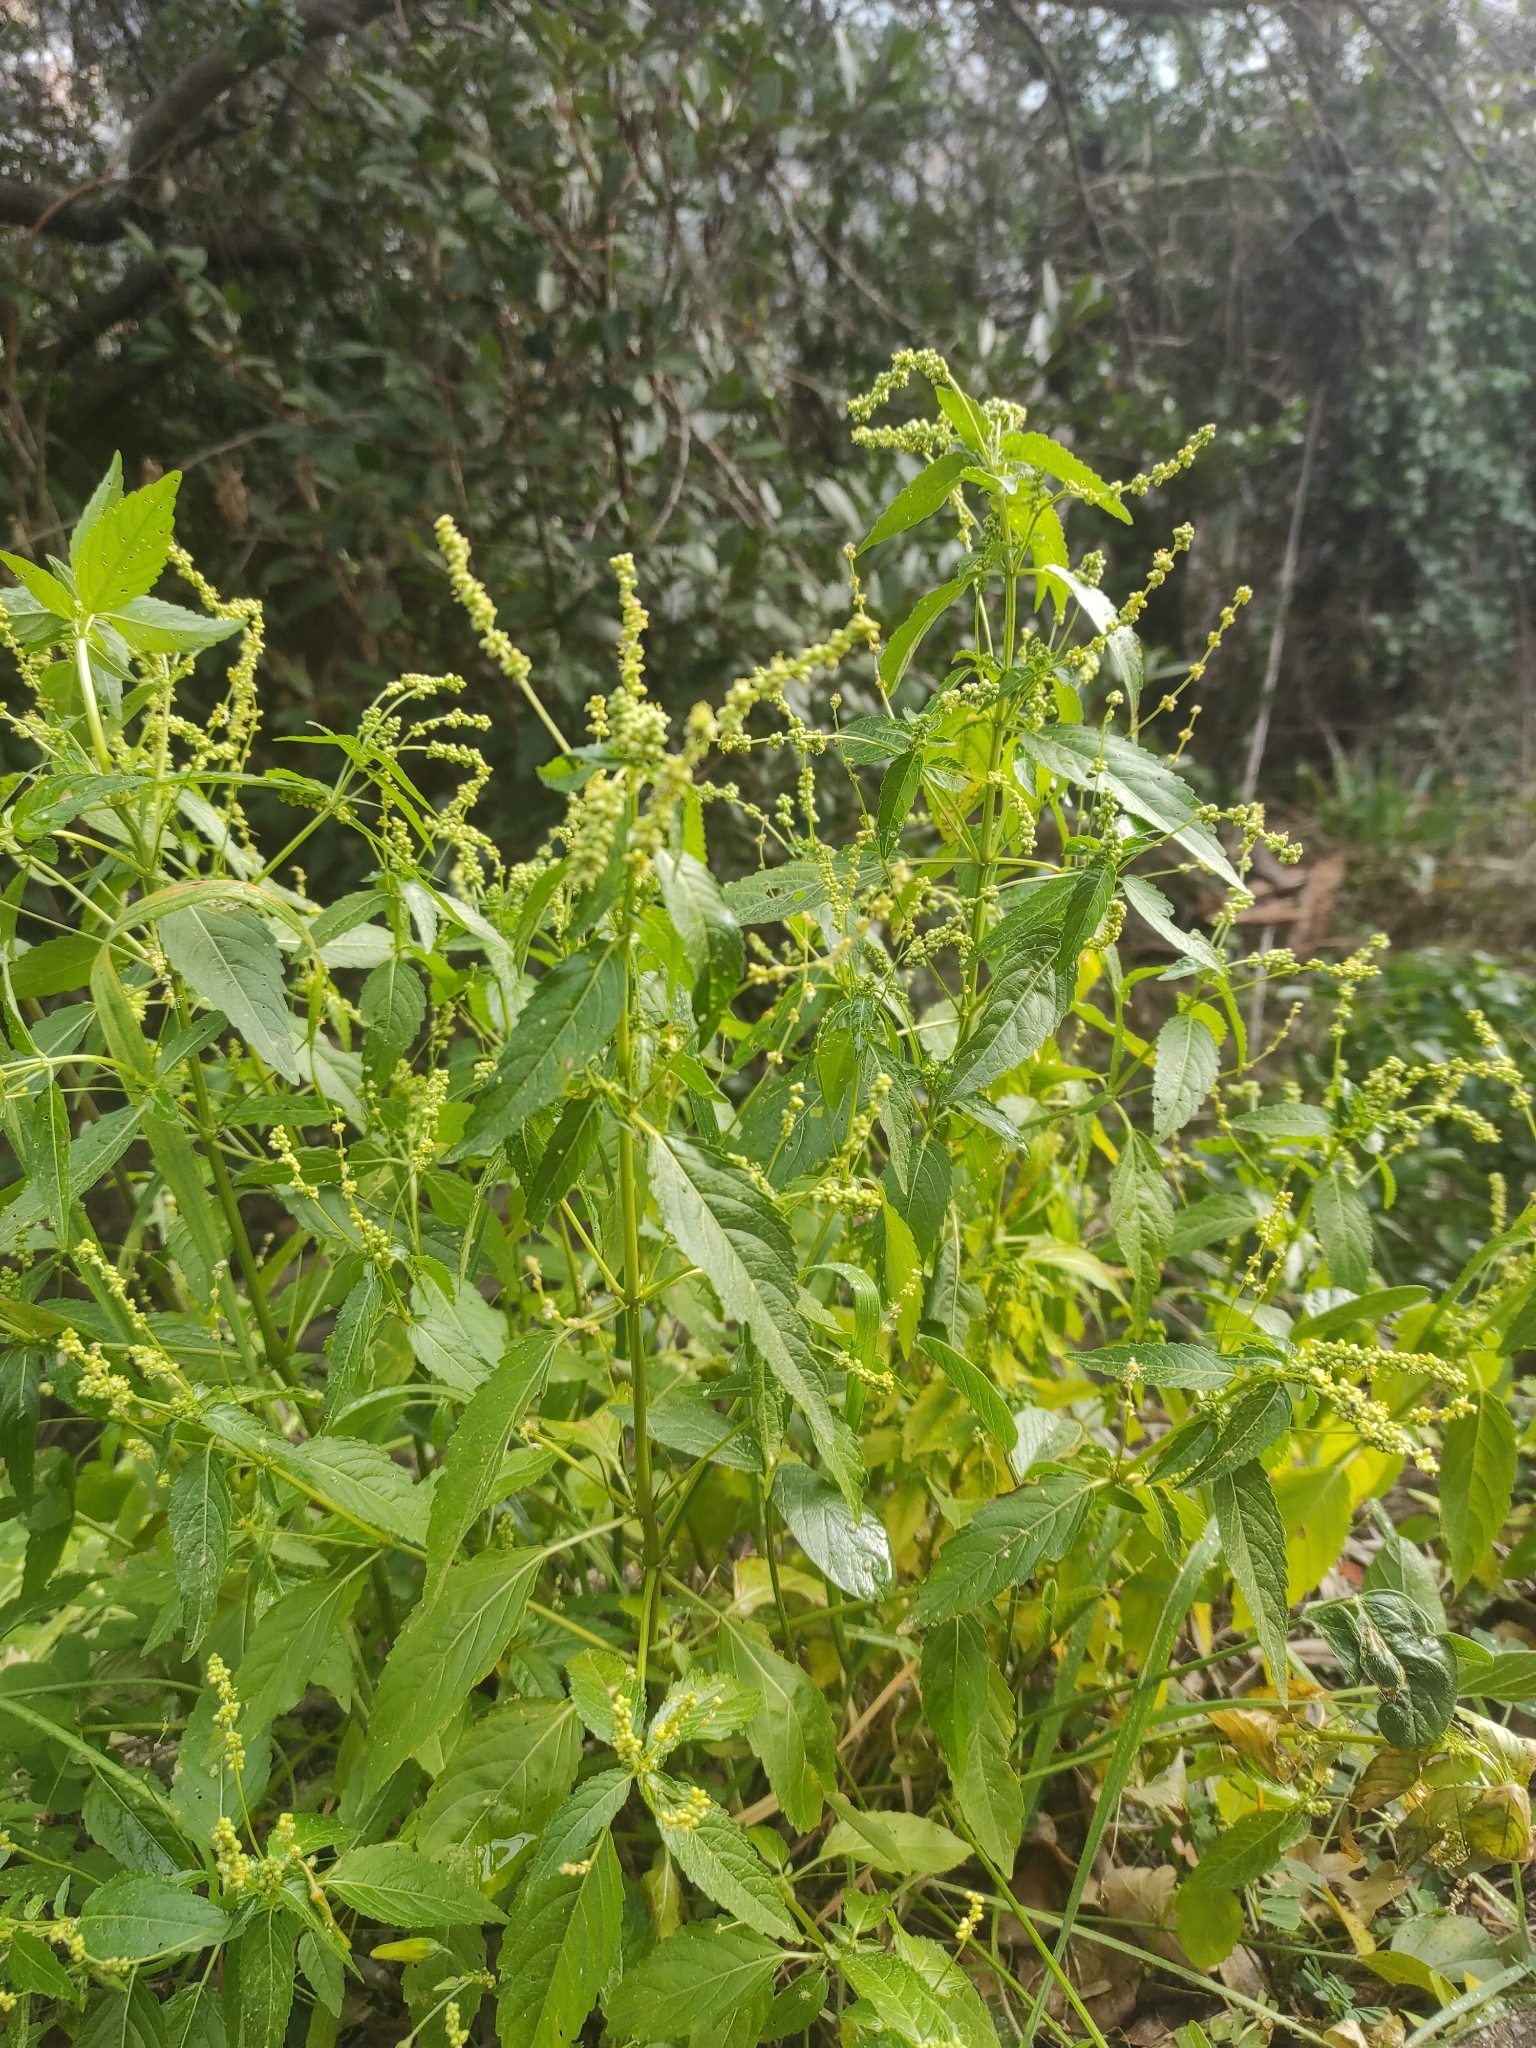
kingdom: Plantae
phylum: Tracheophyta
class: Magnoliopsida
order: Malpighiales
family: Euphorbiaceae
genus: Mercurialis
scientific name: Mercurialis annua
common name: Annual mercury
